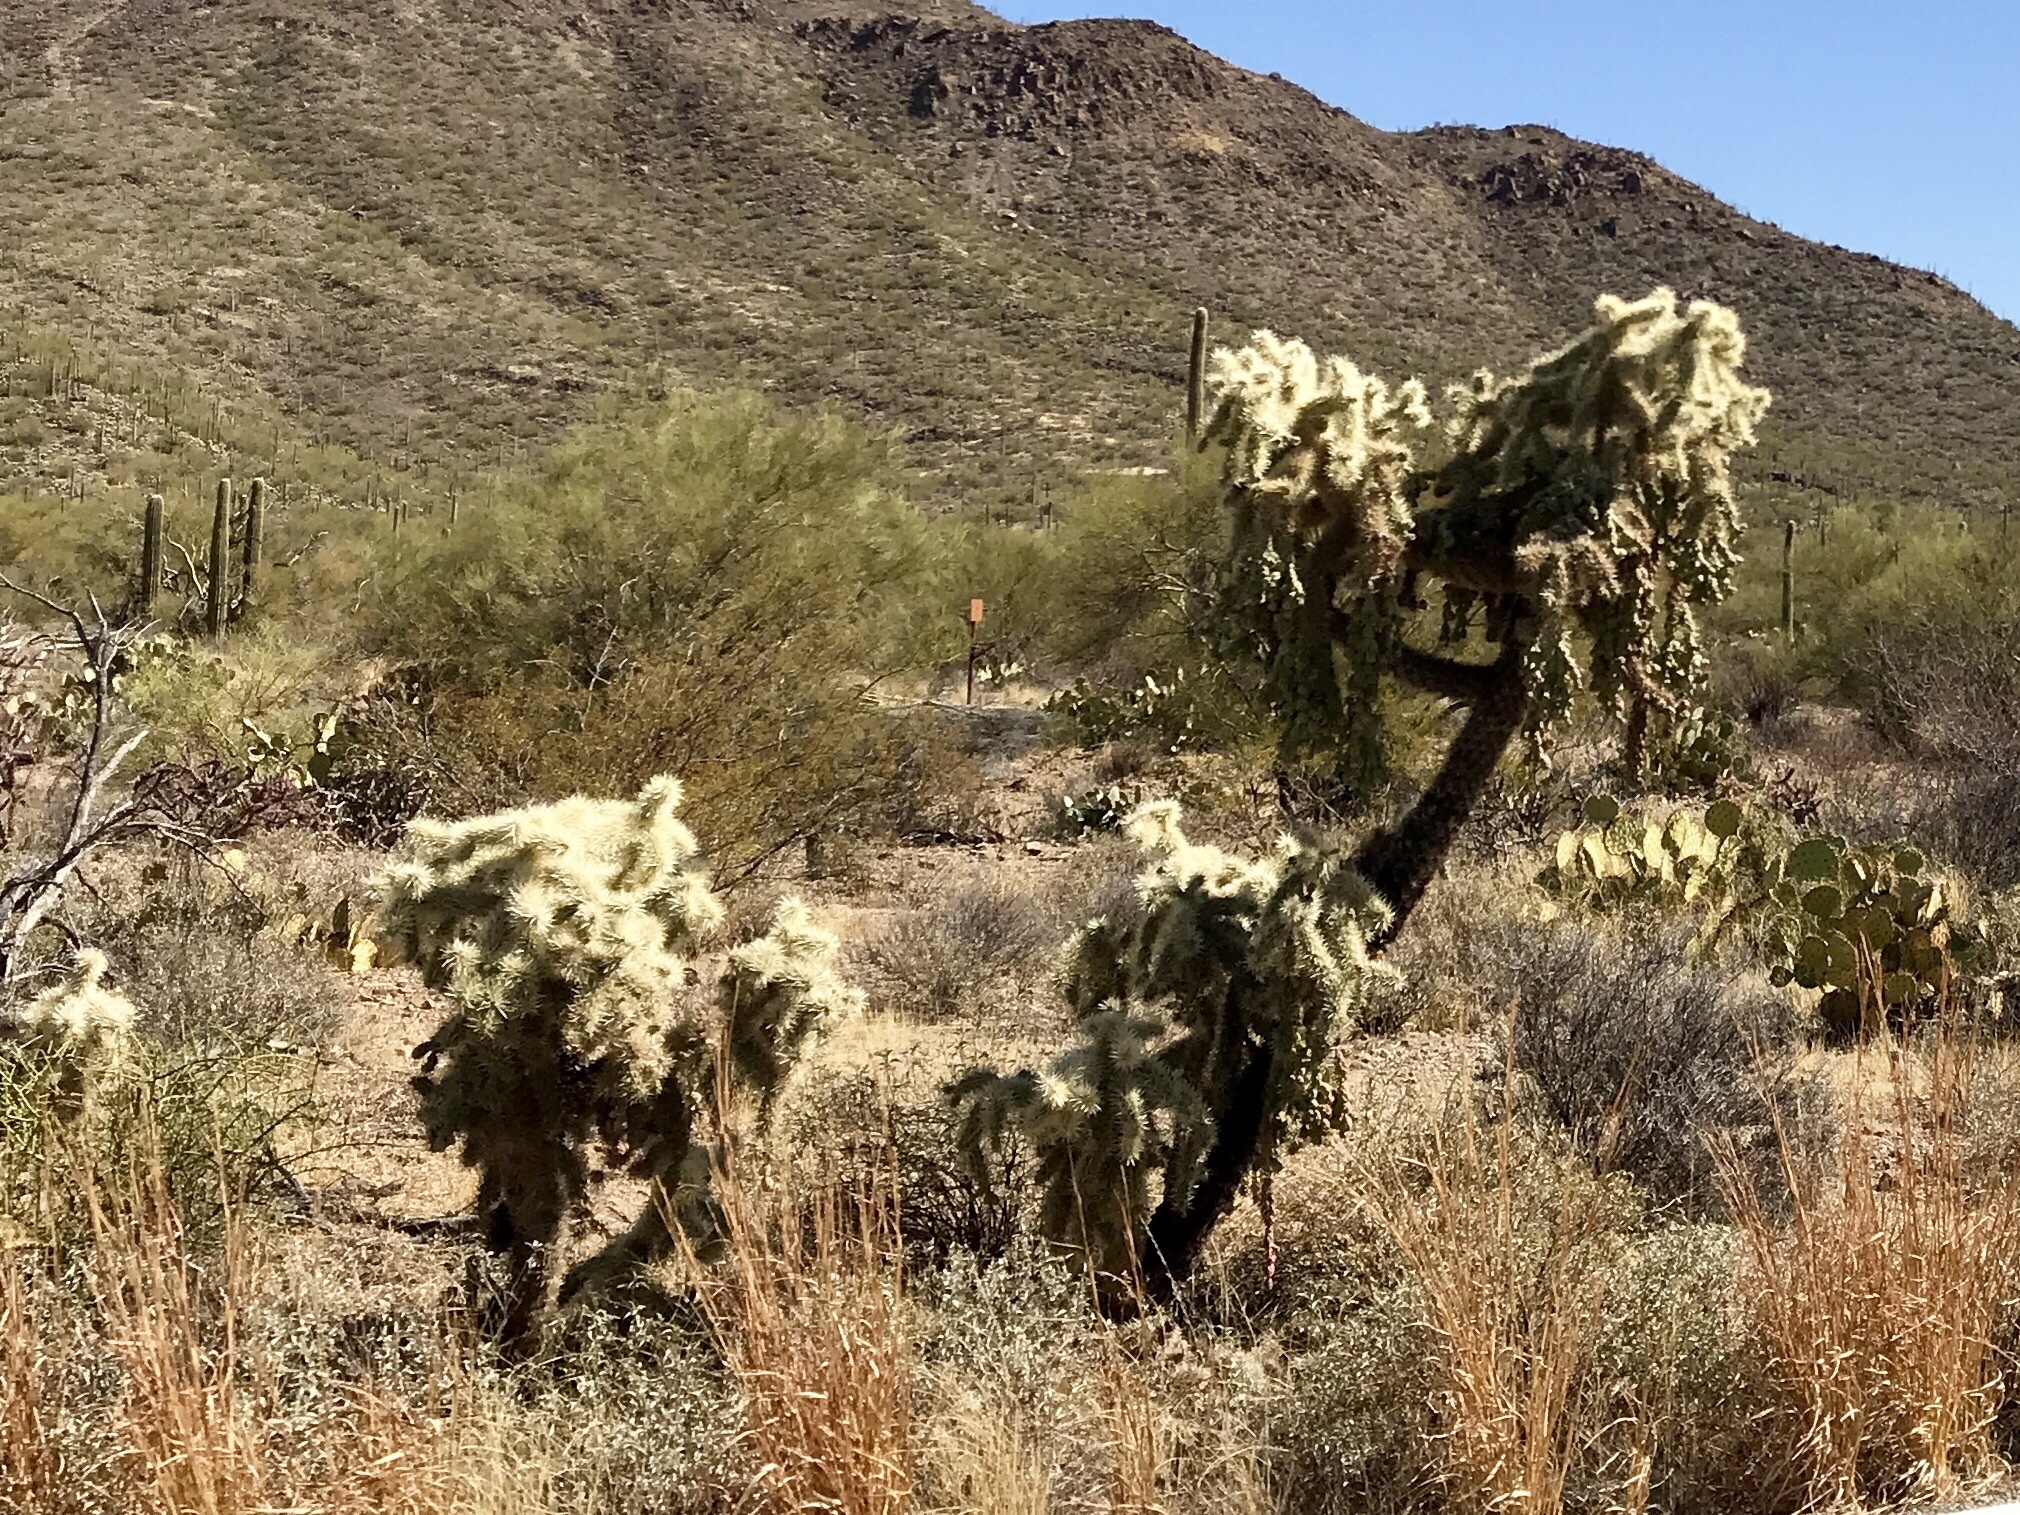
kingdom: Plantae
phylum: Tracheophyta
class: Magnoliopsida
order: Caryophyllales
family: Cactaceae
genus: Cylindropuntia
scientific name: Cylindropuntia fulgida
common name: Jumping cholla
